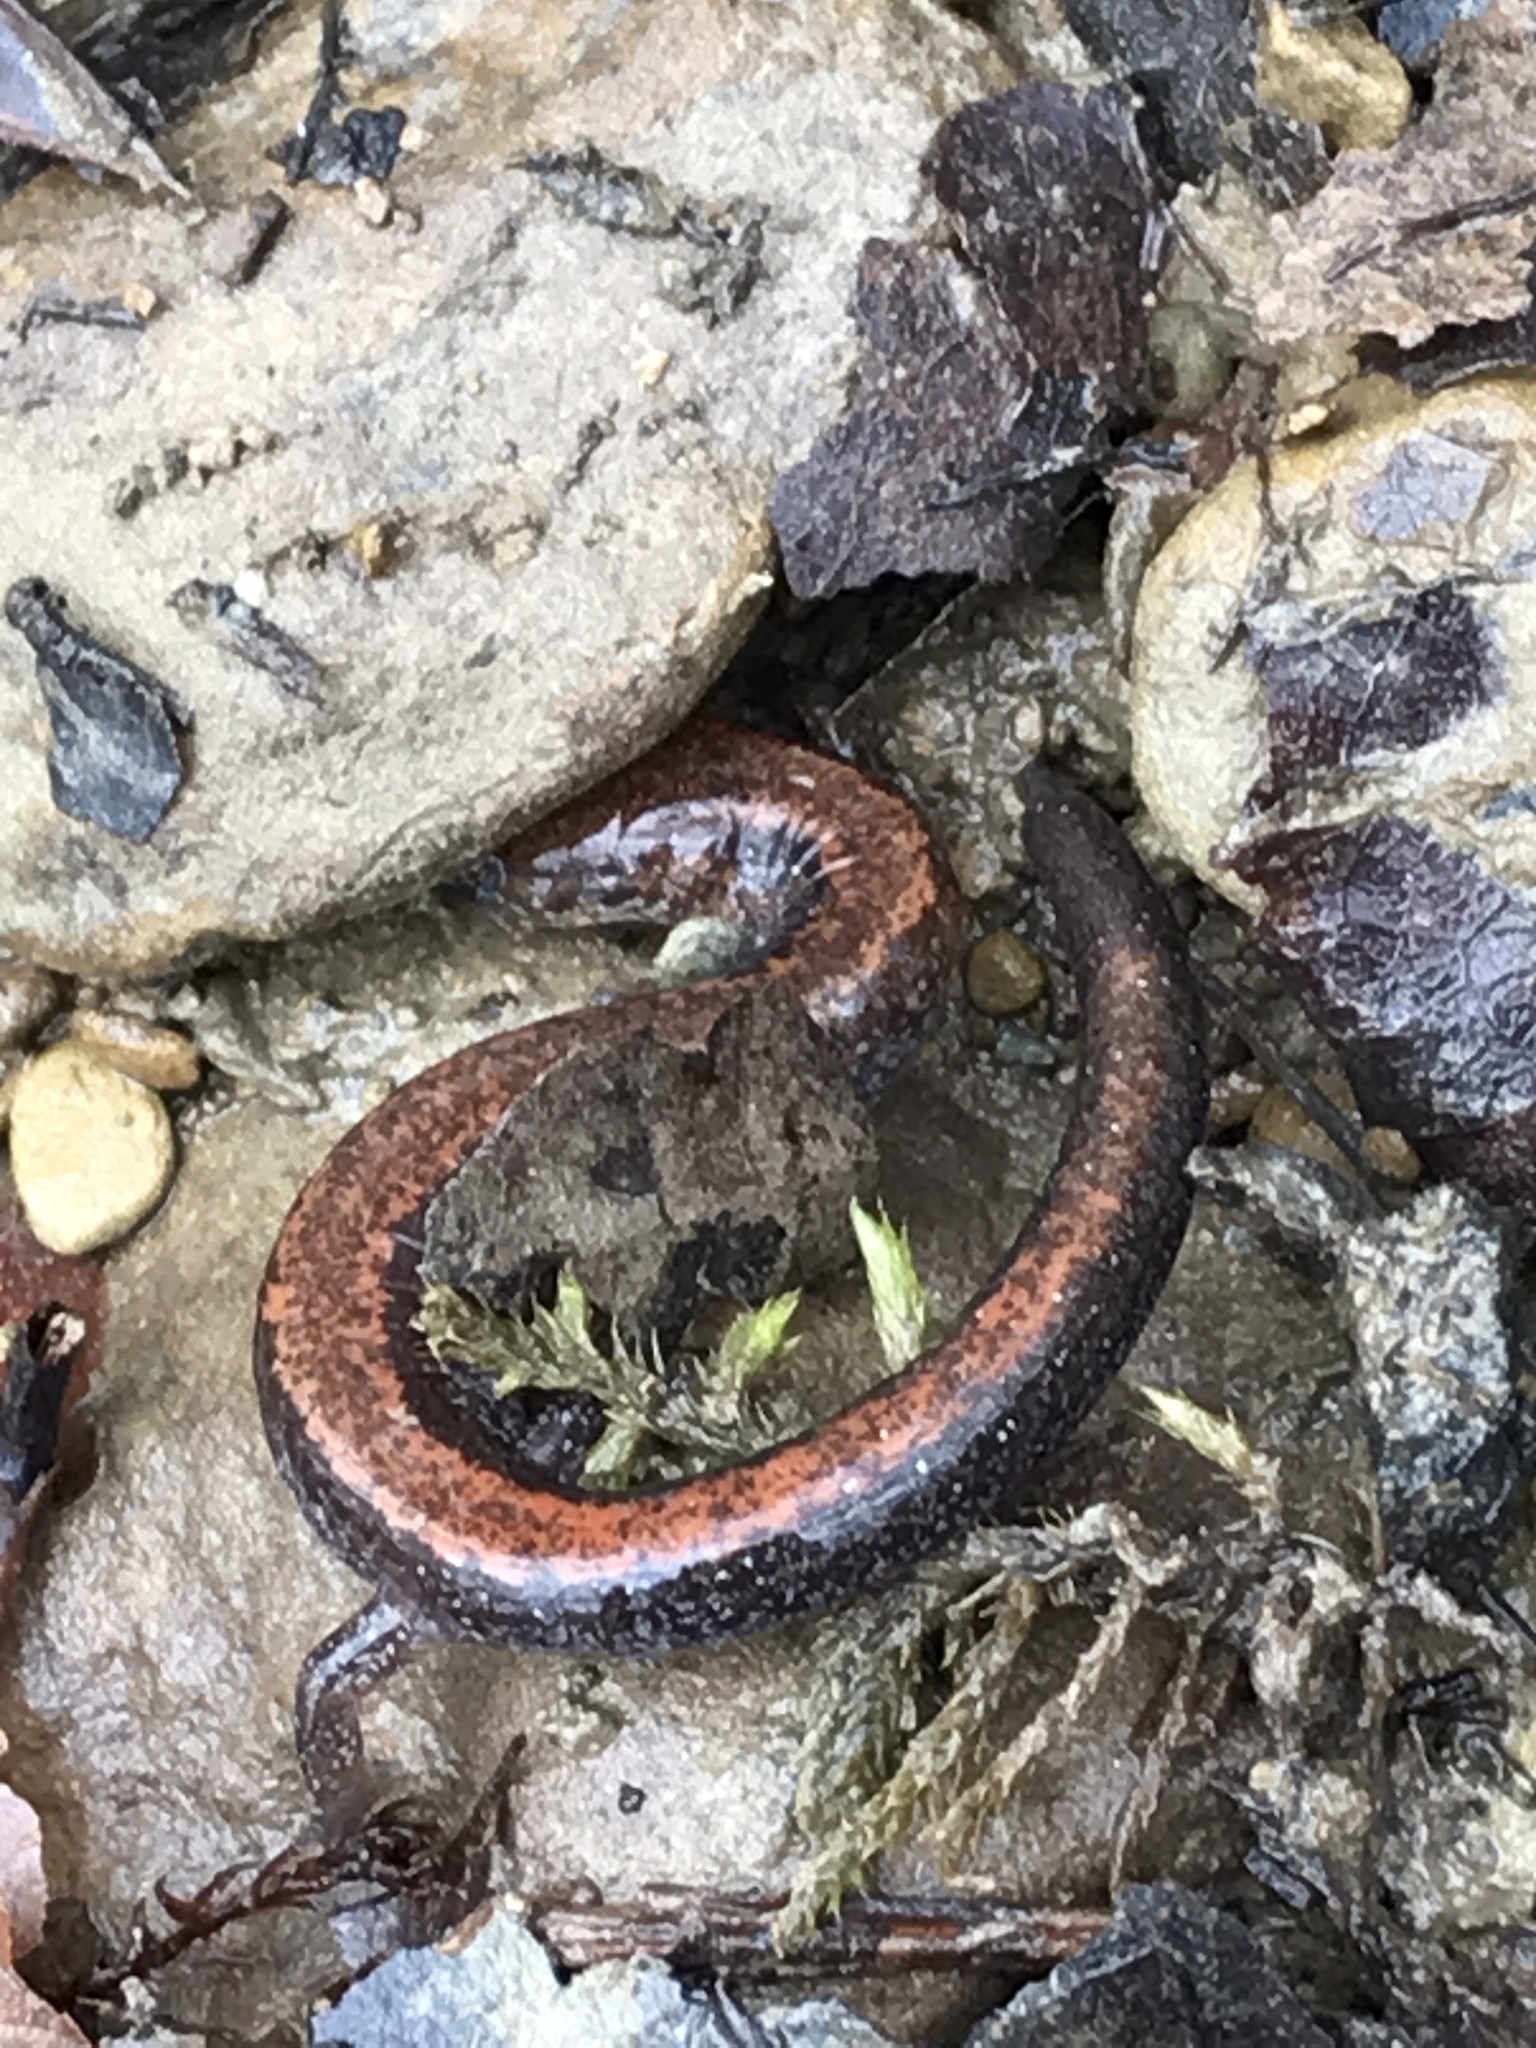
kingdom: Animalia
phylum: Chordata
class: Amphibia
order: Caudata
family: Plethodontidae
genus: Plethodon
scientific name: Plethodon cinereus
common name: Redback salamander
